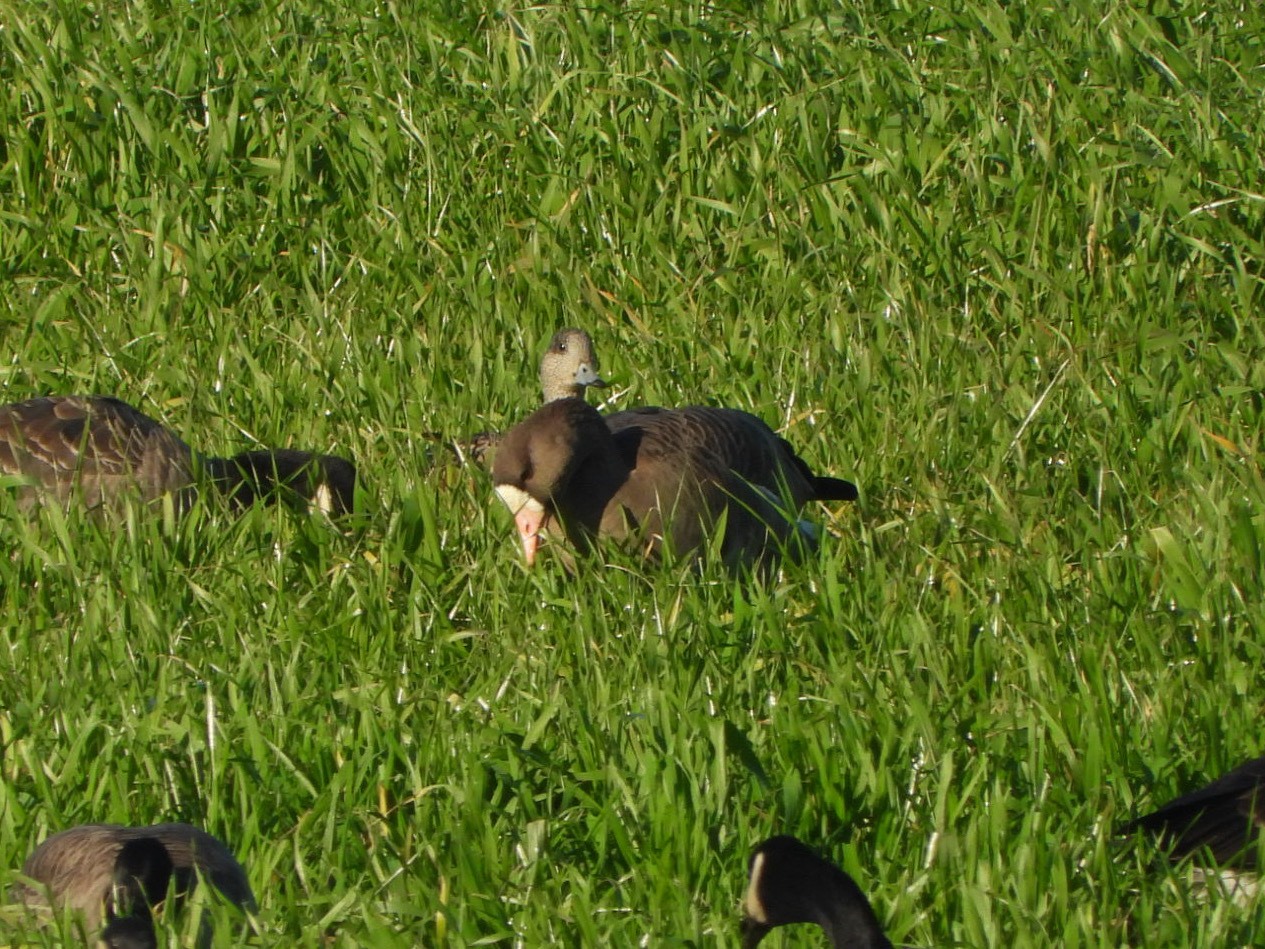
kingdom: Animalia
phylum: Chordata
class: Aves
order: Anseriformes
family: Anatidae
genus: Anser
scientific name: Anser albifrons
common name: Greater white-fronted goose
